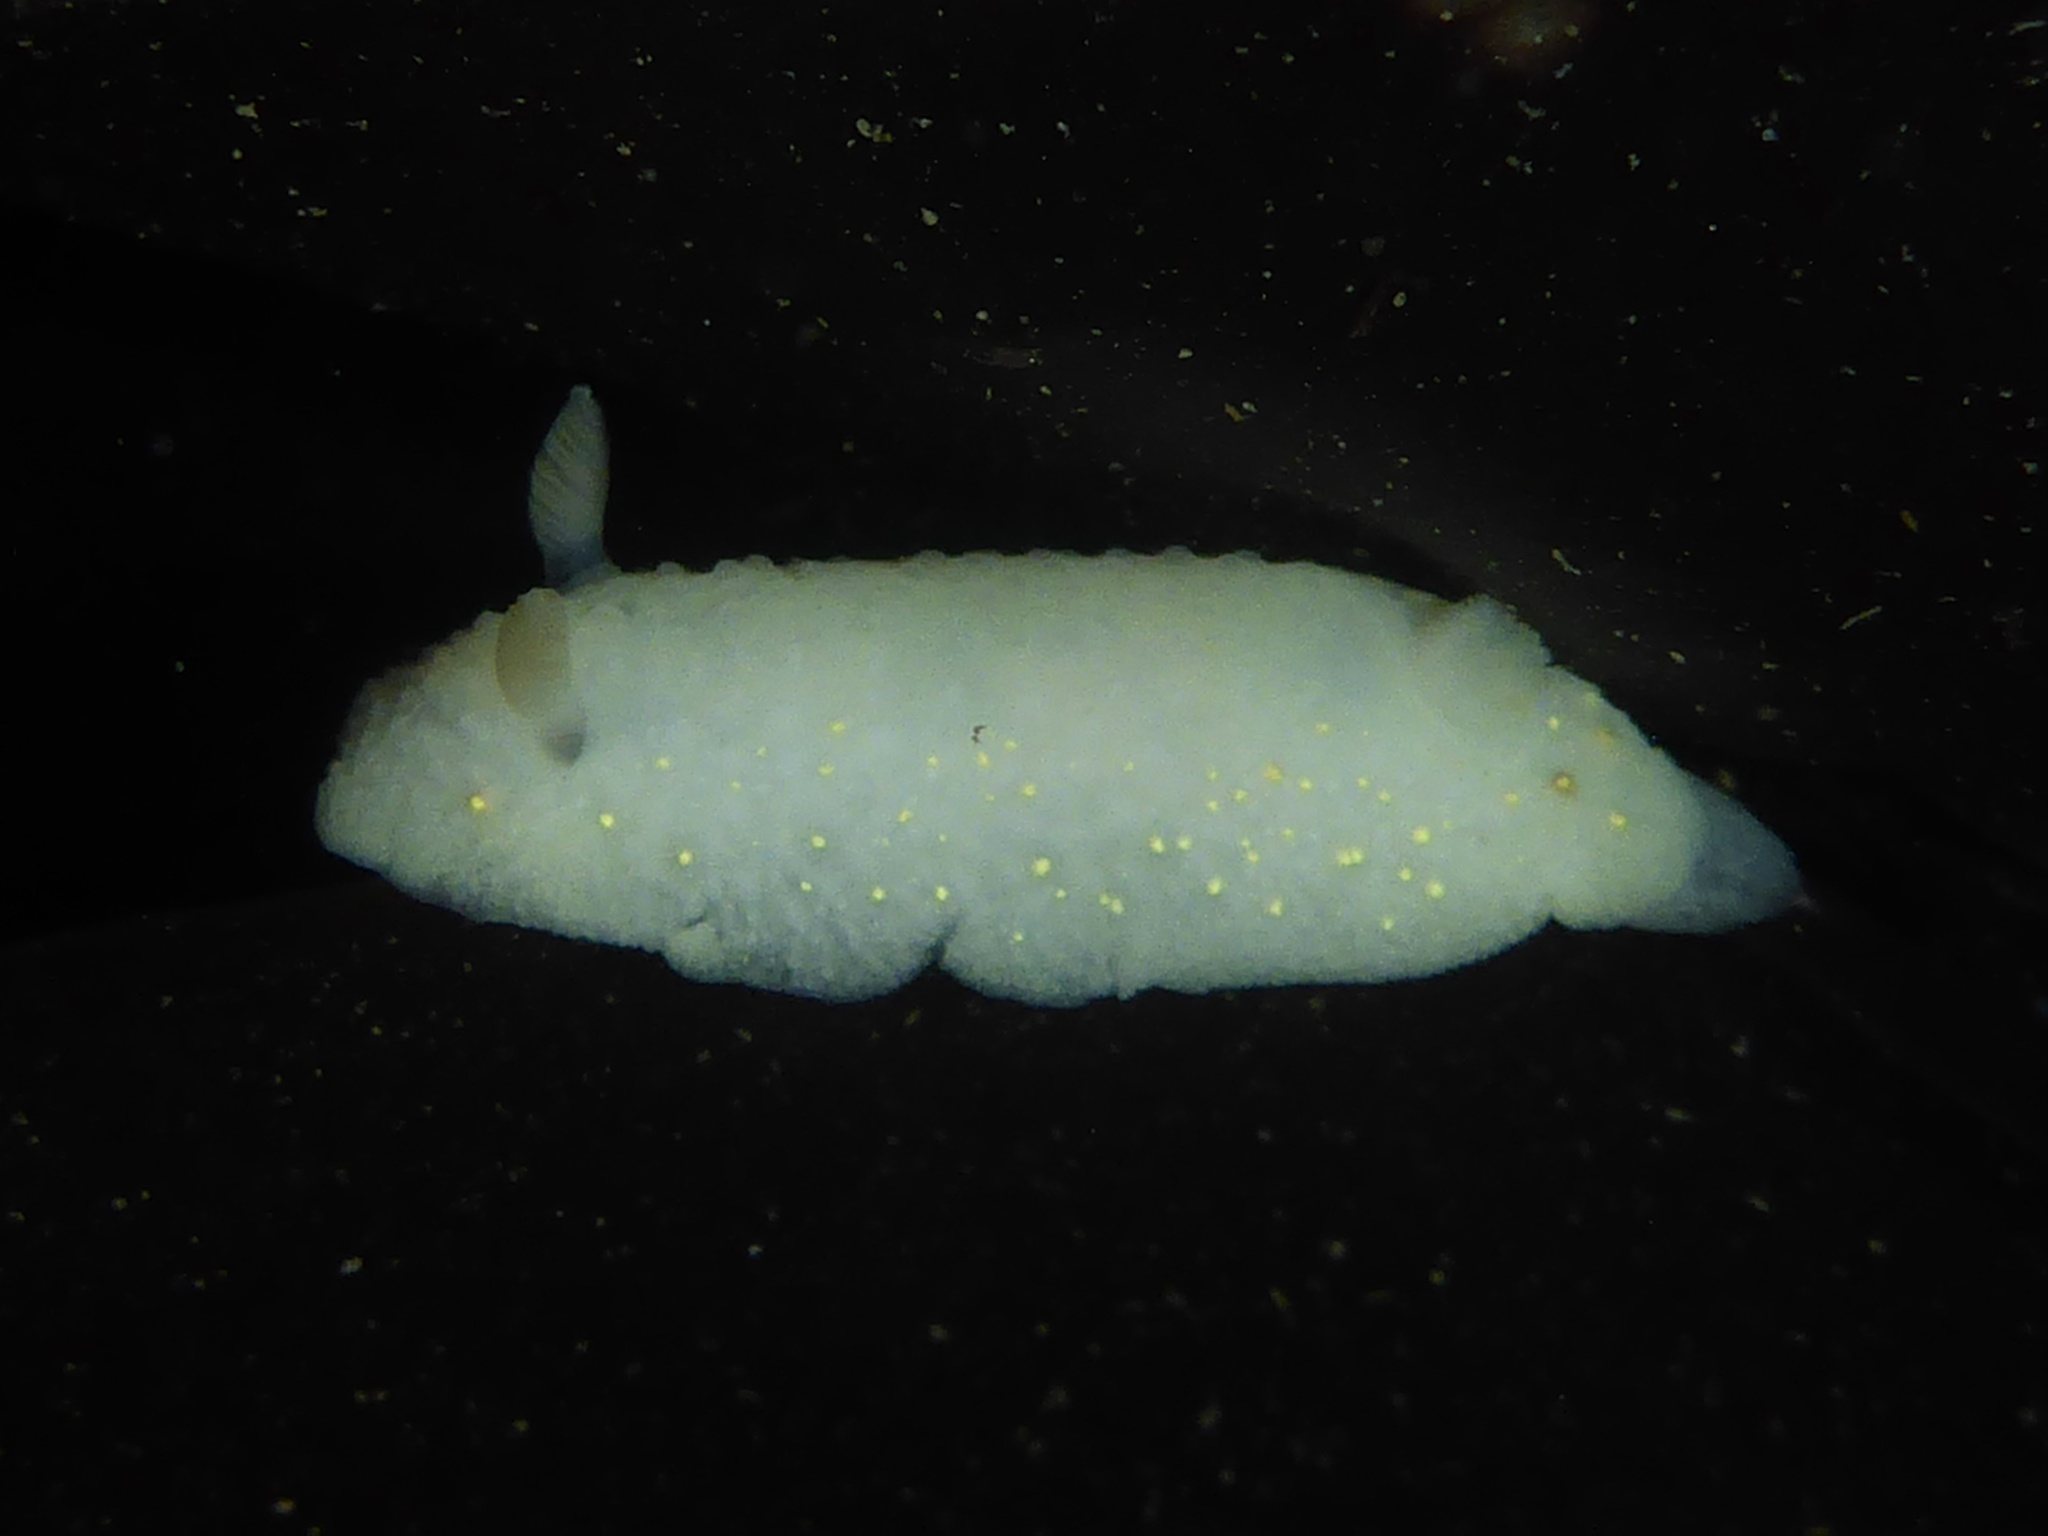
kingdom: Animalia
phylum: Mollusca
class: Gastropoda
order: Nudibranchia
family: Cadlinidae
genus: Cadlina
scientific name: Cadlina modesta
